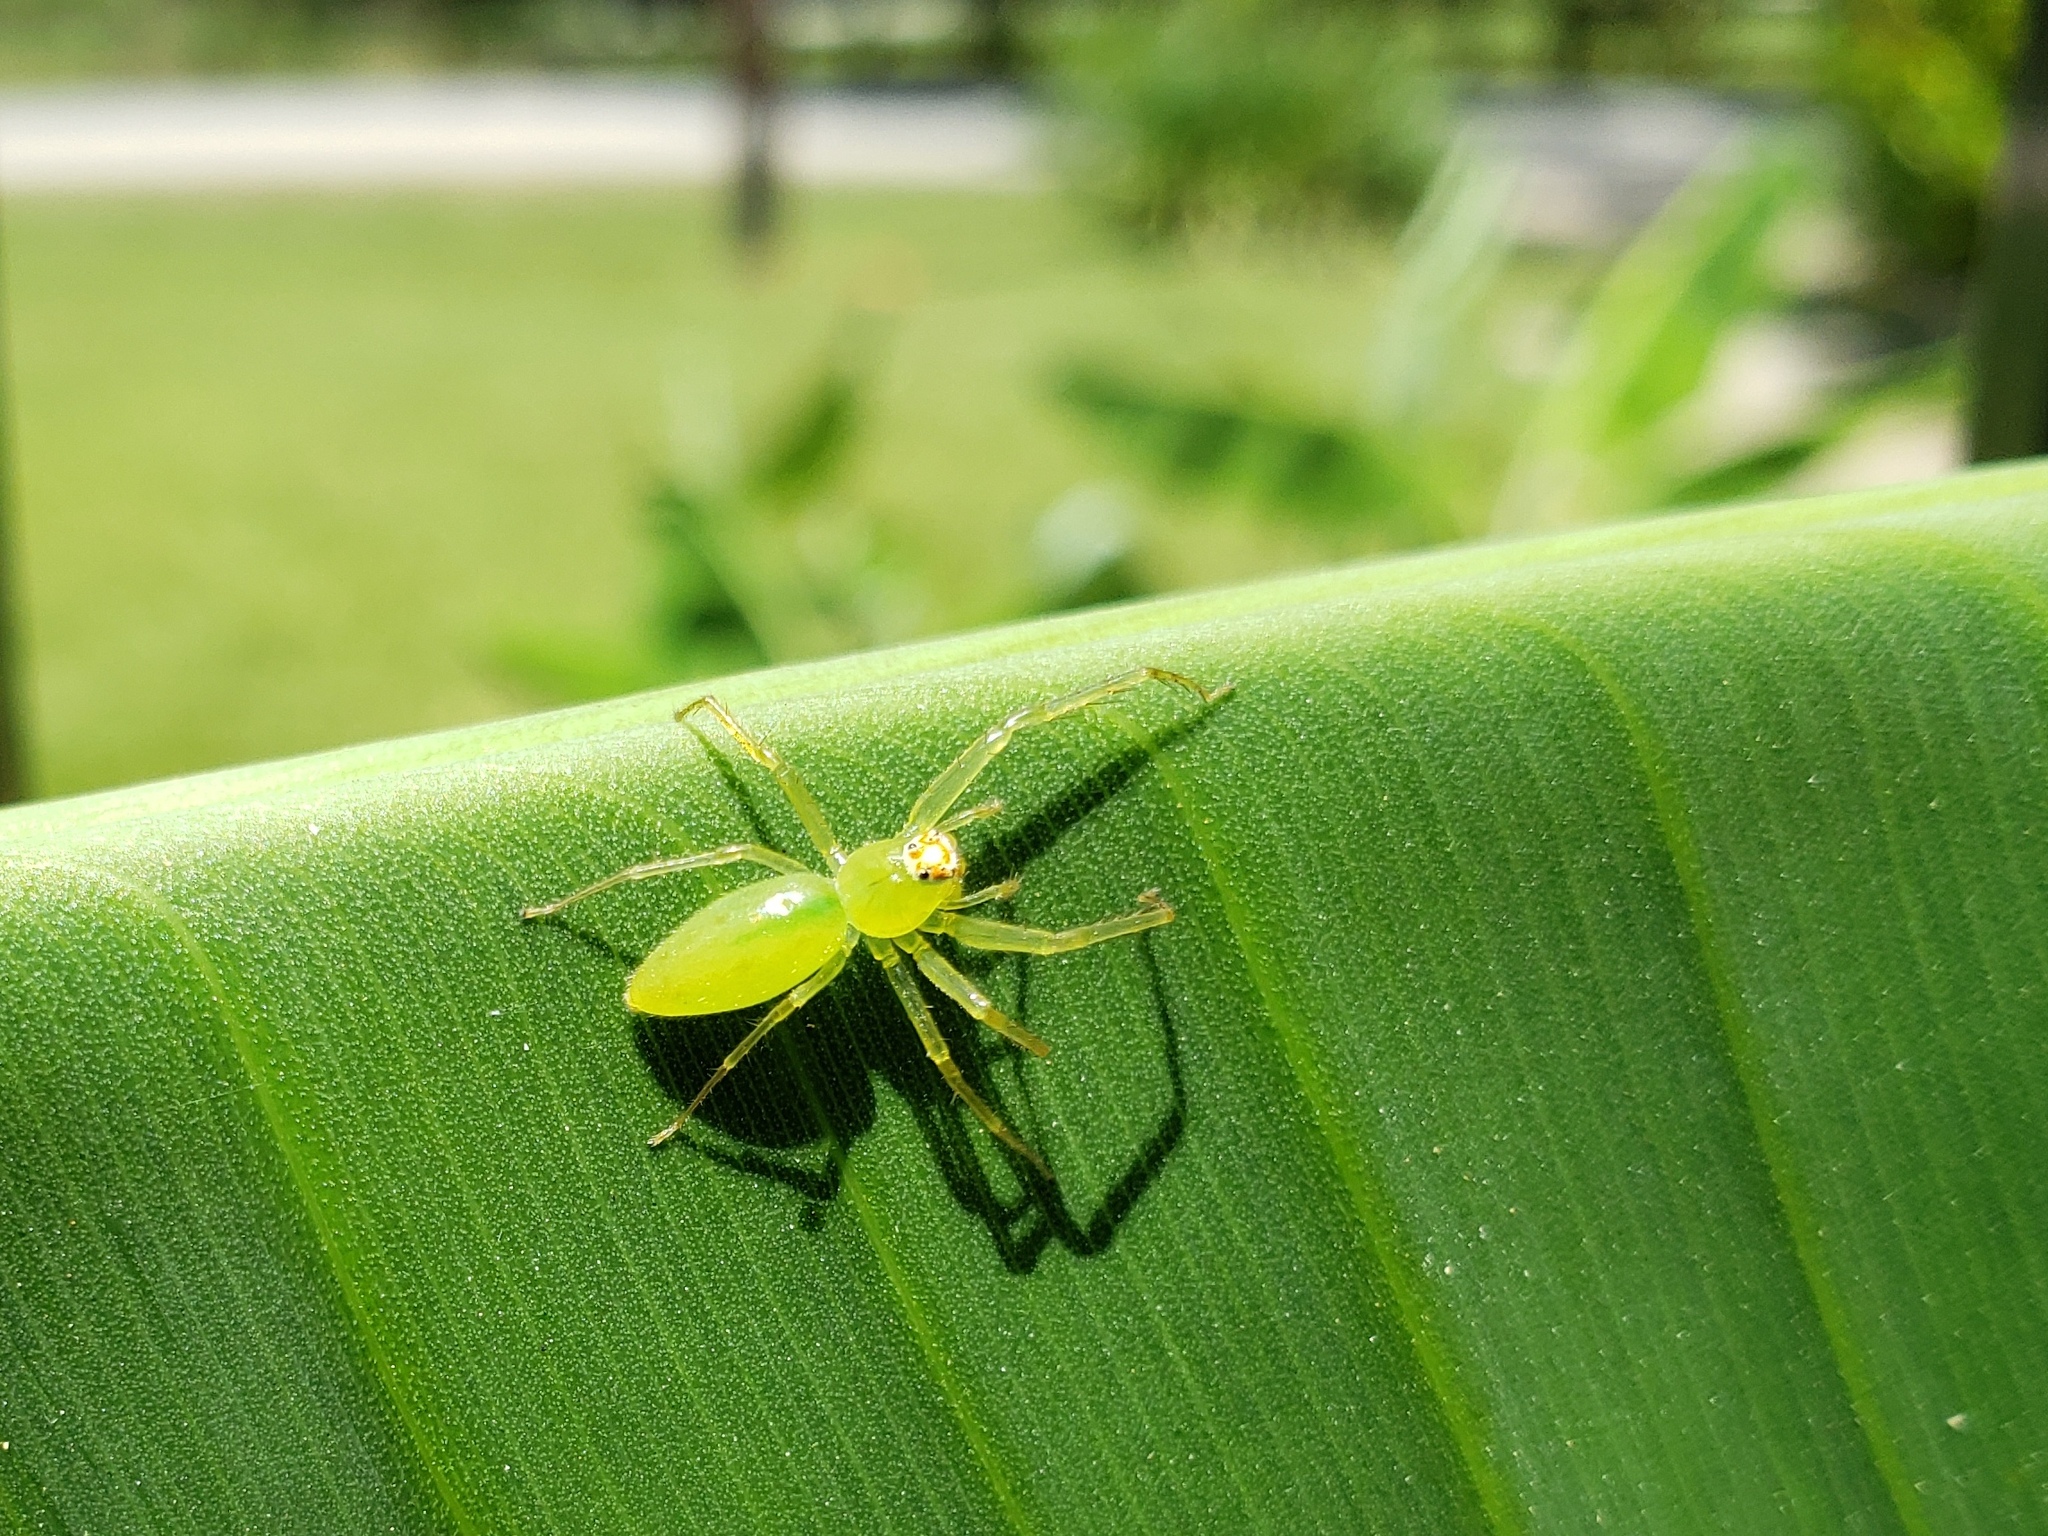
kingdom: Animalia
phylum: Arthropoda
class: Arachnida
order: Araneae
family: Salticidae
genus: Lyssomanes
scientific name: Lyssomanes viridis
